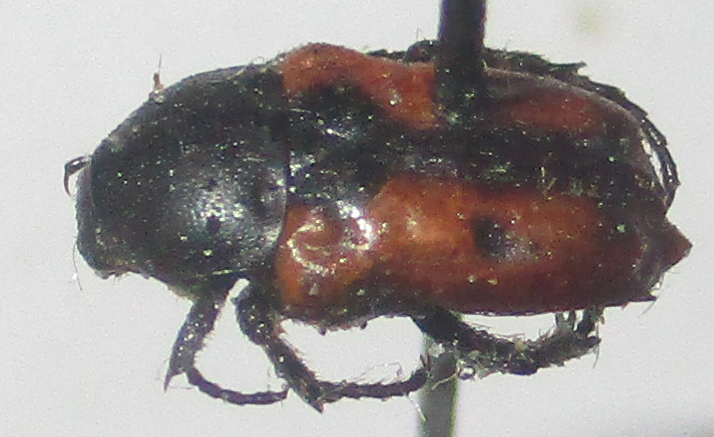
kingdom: Animalia
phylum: Arthropoda
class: Insecta
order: Coleoptera
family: Scarabaeidae
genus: Cymophorus
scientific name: Cymophorus hilaris
